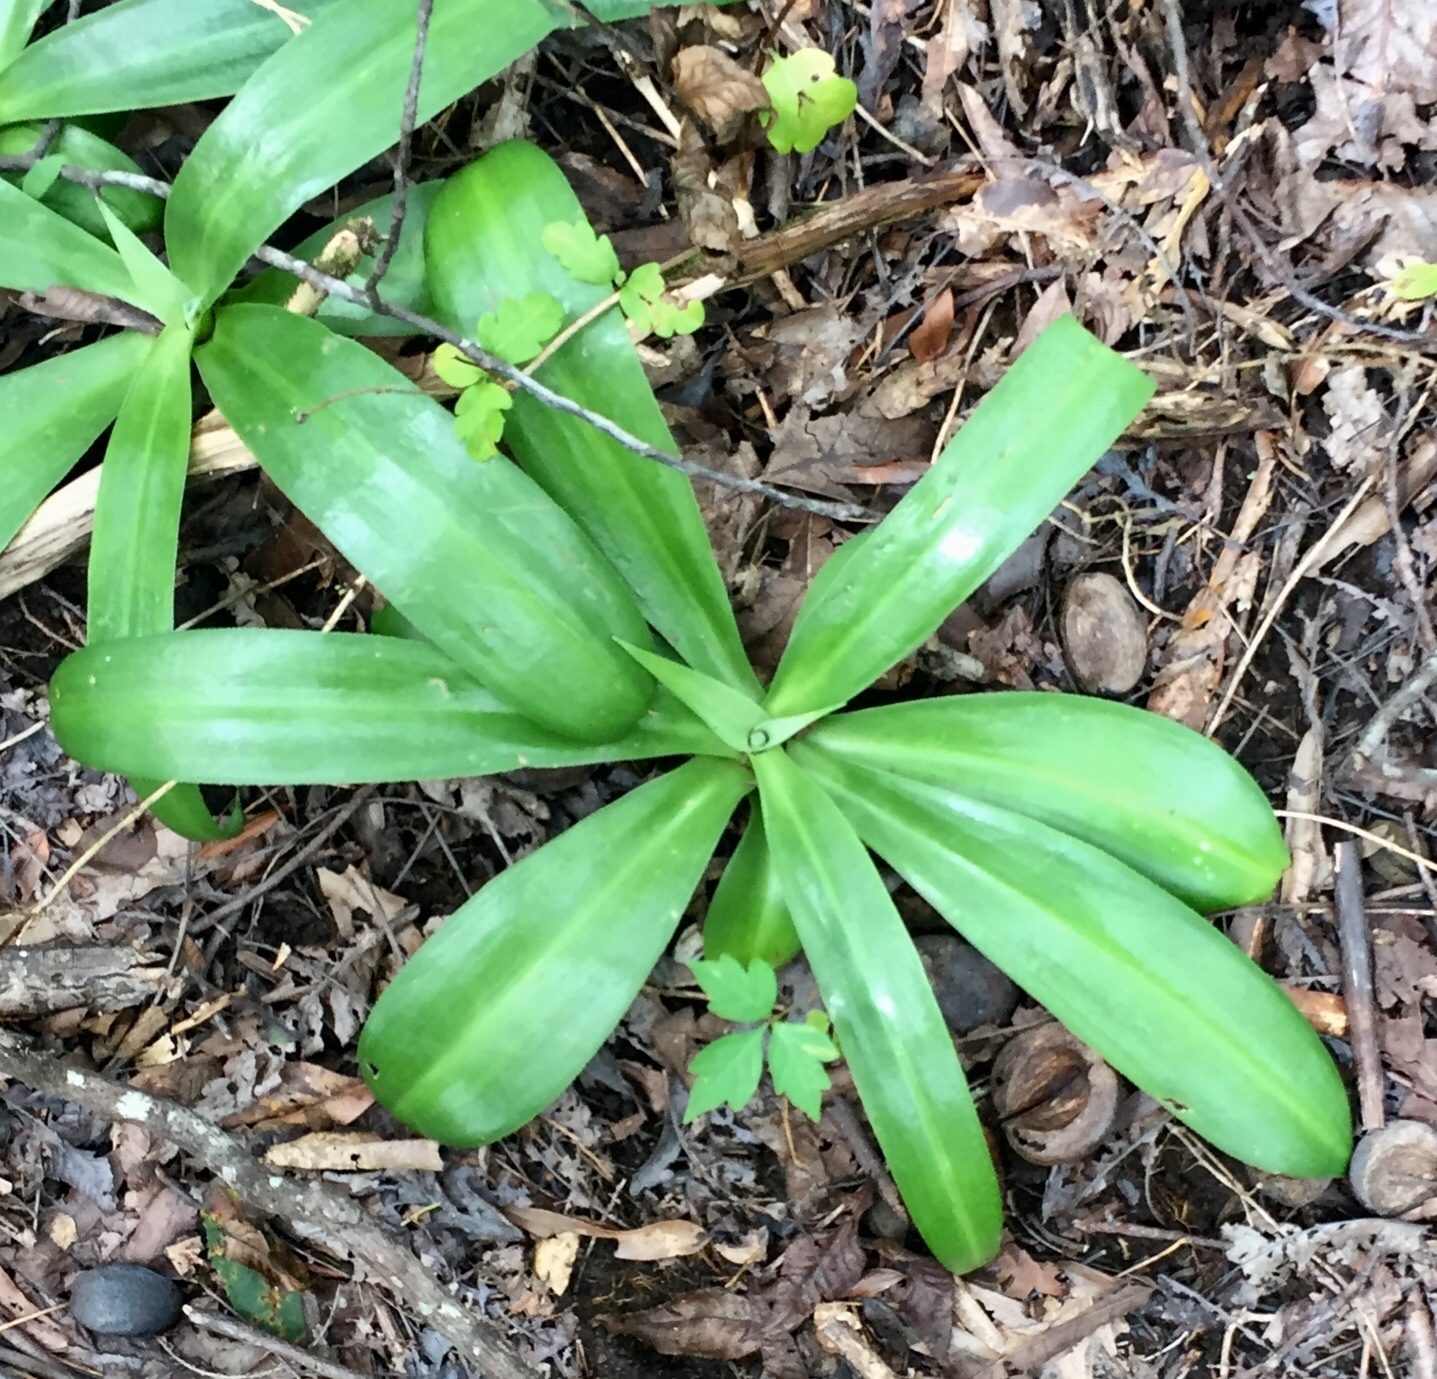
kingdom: Plantae
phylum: Tracheophyta
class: Liliopsida
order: Asparagales
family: Asparagaceae
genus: Agave
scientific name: Agave virginica
